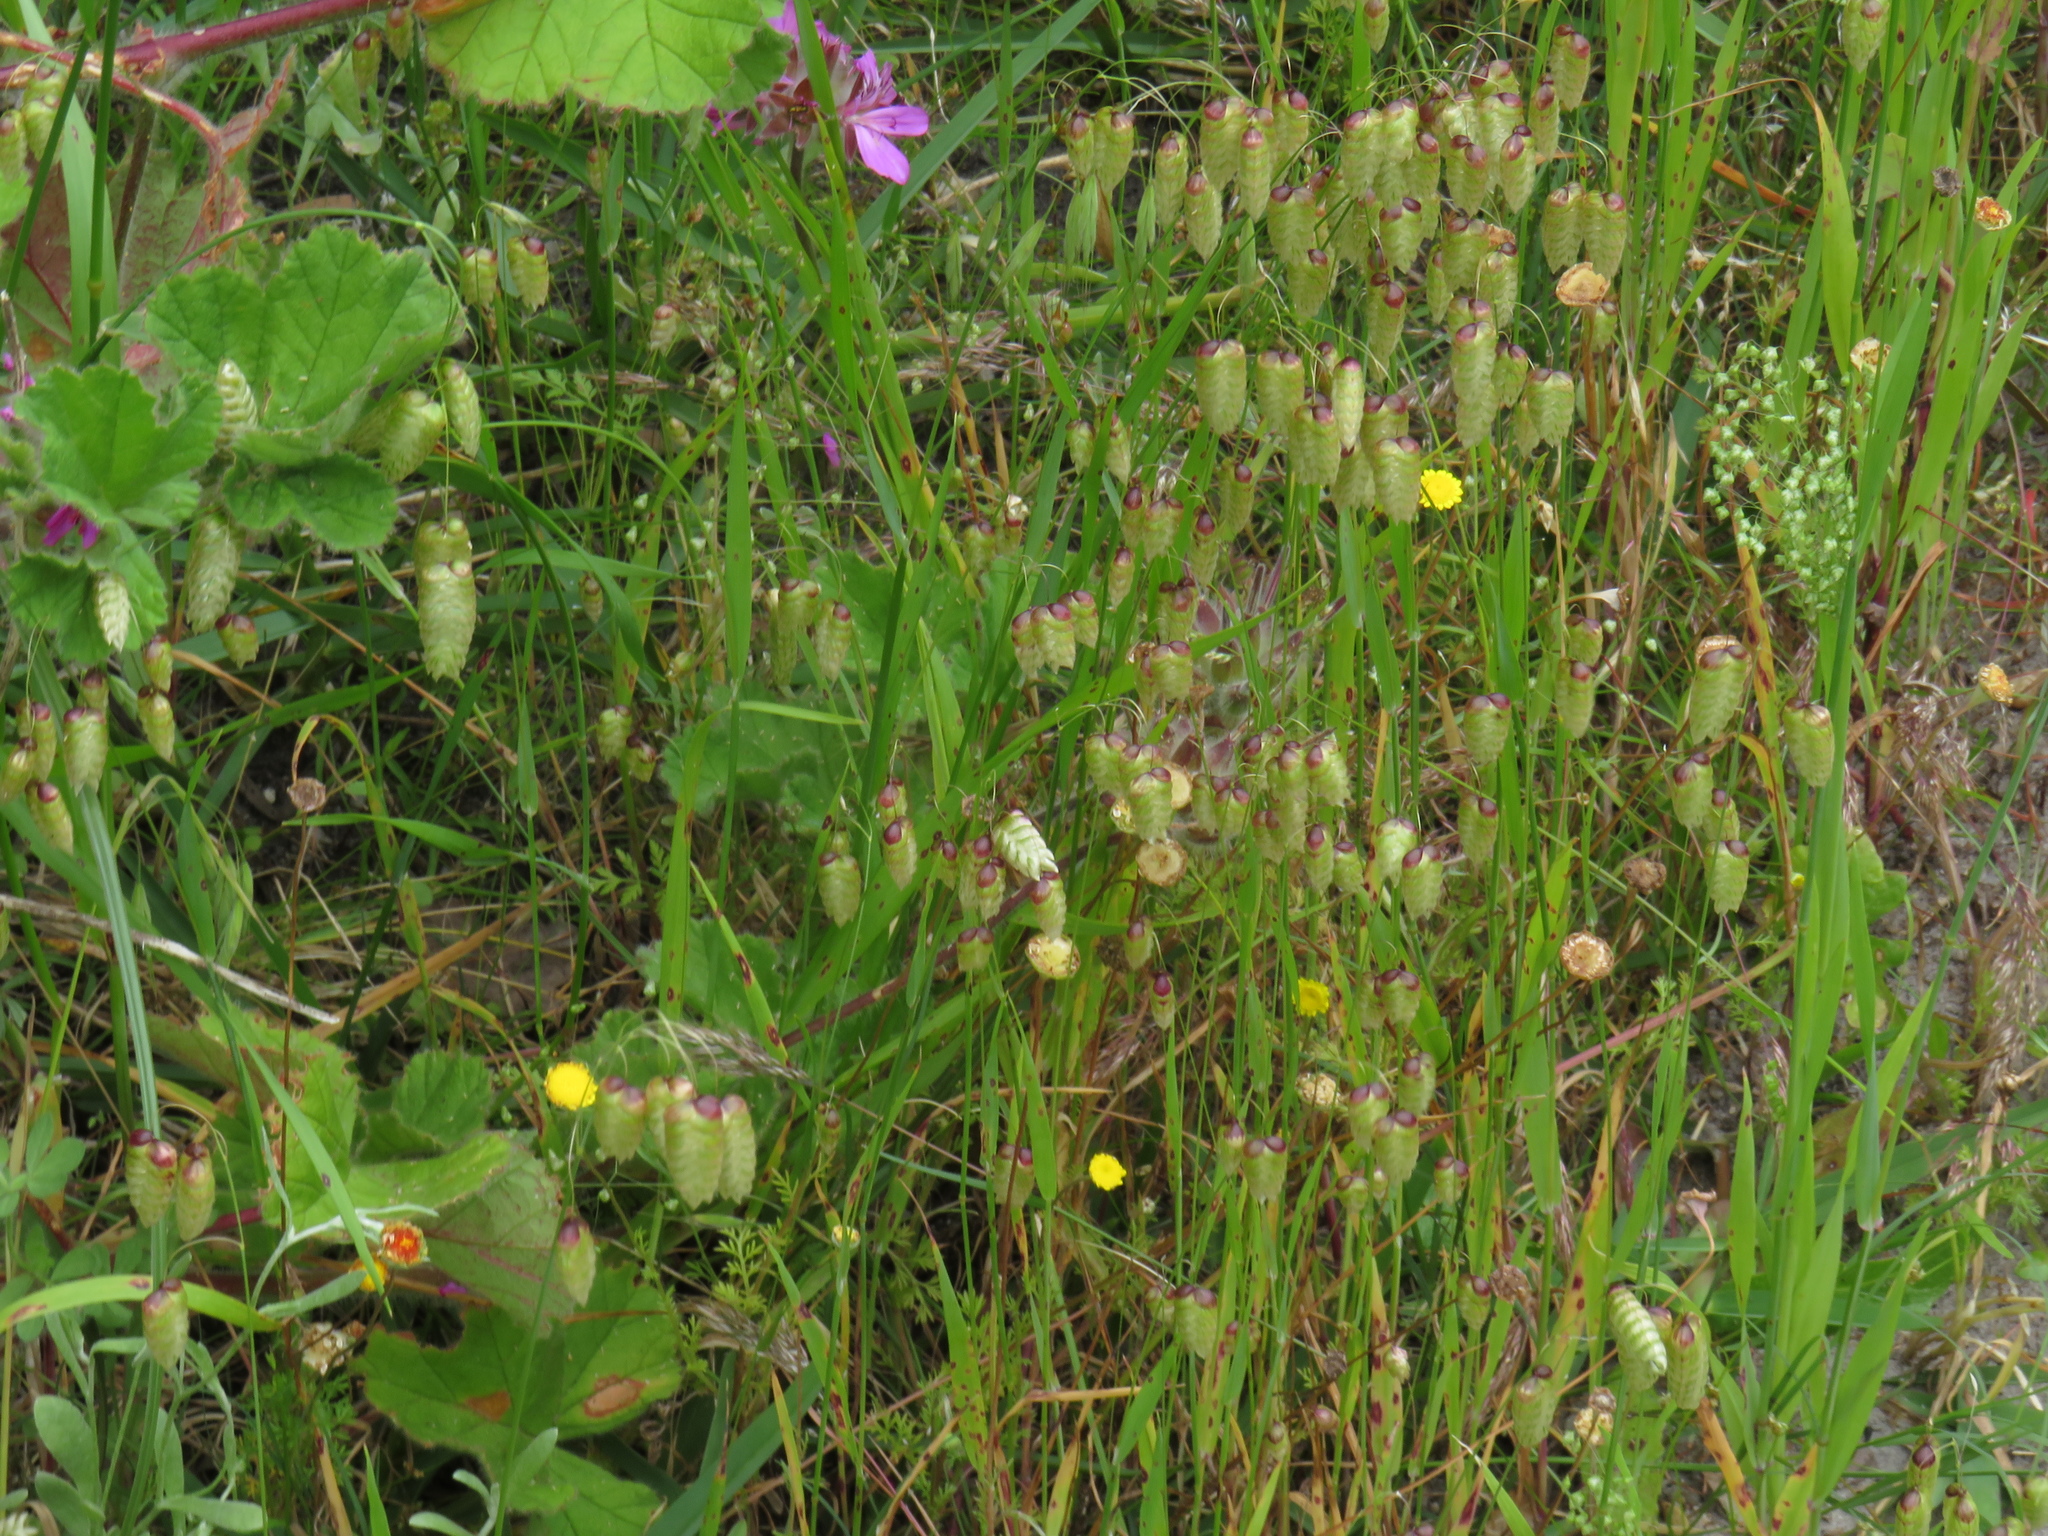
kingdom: Plantae
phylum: Tracheophyta
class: Liliopsida
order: Poales
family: Poaceae
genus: Briza
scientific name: Briza maxima
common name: Big quakinggrass
